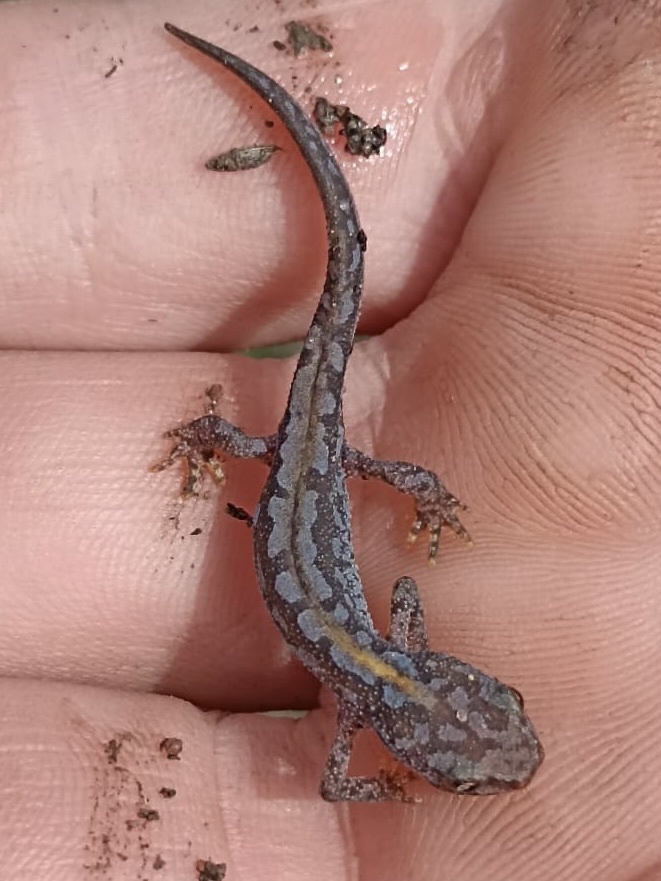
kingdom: Animalia
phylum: Chordata
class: Amphibia
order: Caudata
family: Salamandridae
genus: Ichthyosaura
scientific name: Ichthyosaura alpestris
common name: Alpine newt
